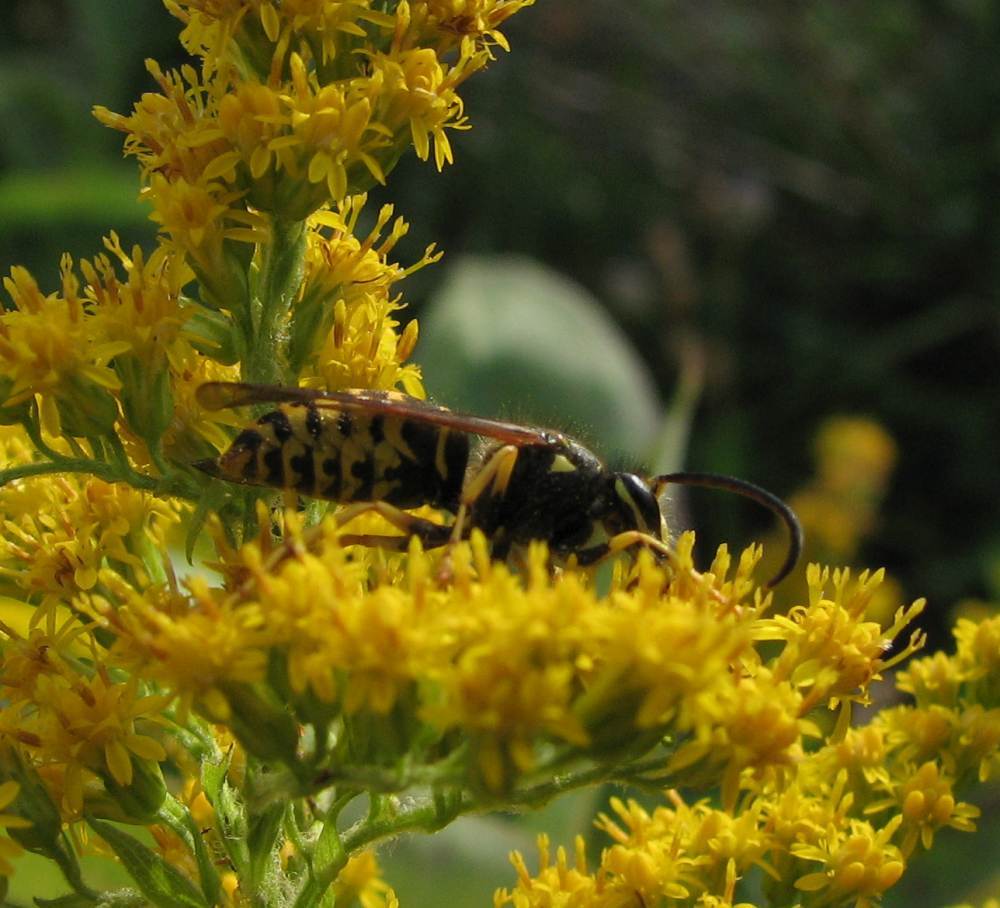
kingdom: Animalia
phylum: Arthropoda
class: Insecta
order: Hymenoptera
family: Vespidae
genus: Dolichovespula
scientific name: Dolichovespula arenaria
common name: Aerial yellowjacket
